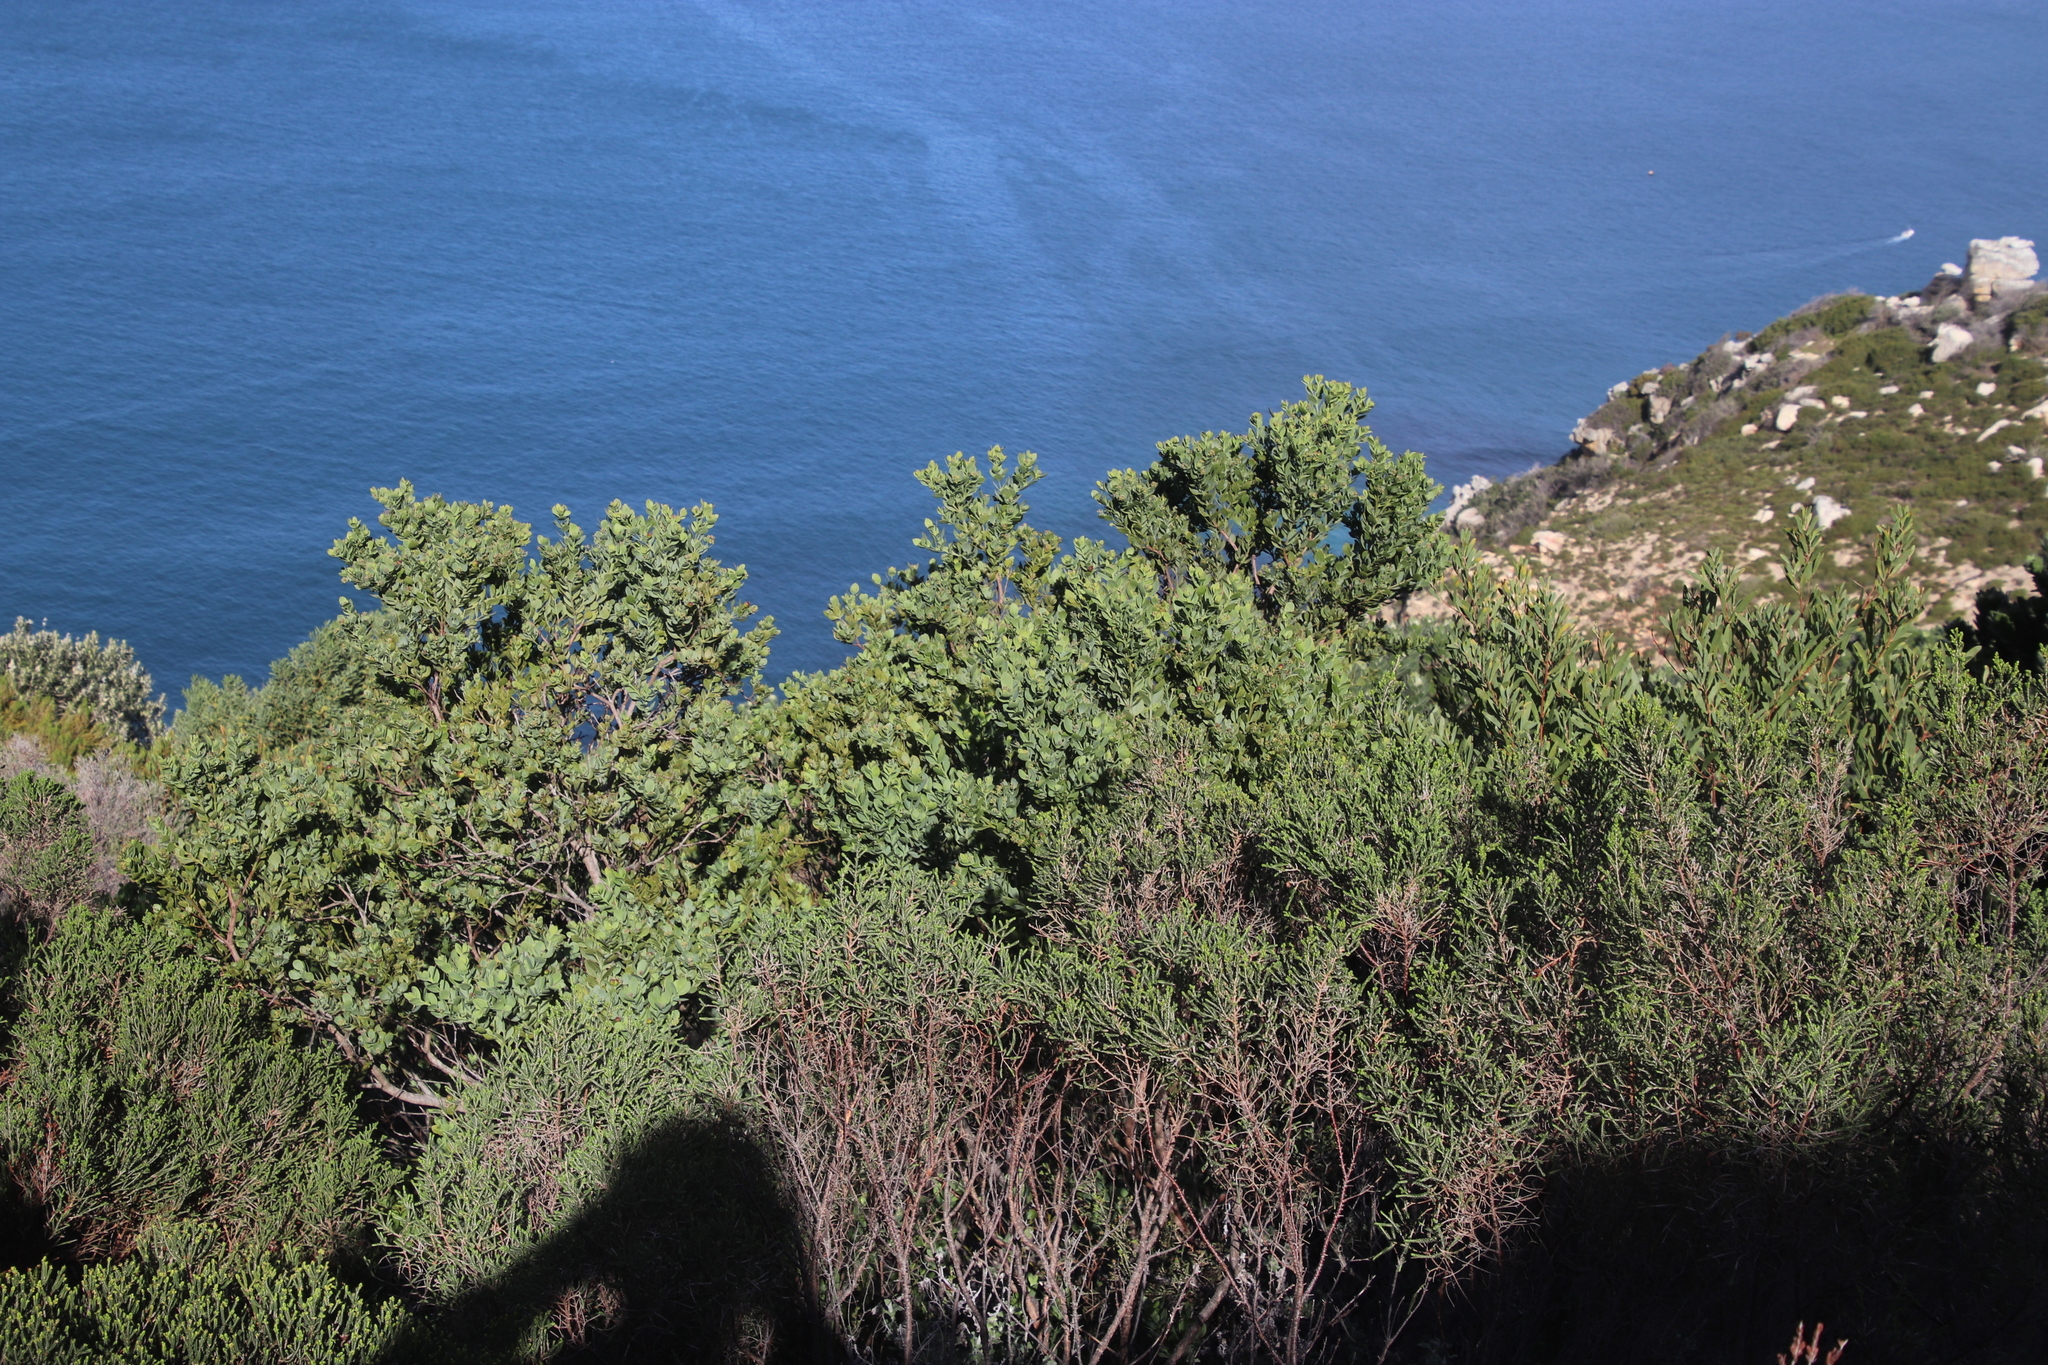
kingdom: Plantae
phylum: Tracheophyta
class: Magnoliopsida
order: Santalales
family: Santalaceae
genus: Osyris
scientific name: Osyris compressa
